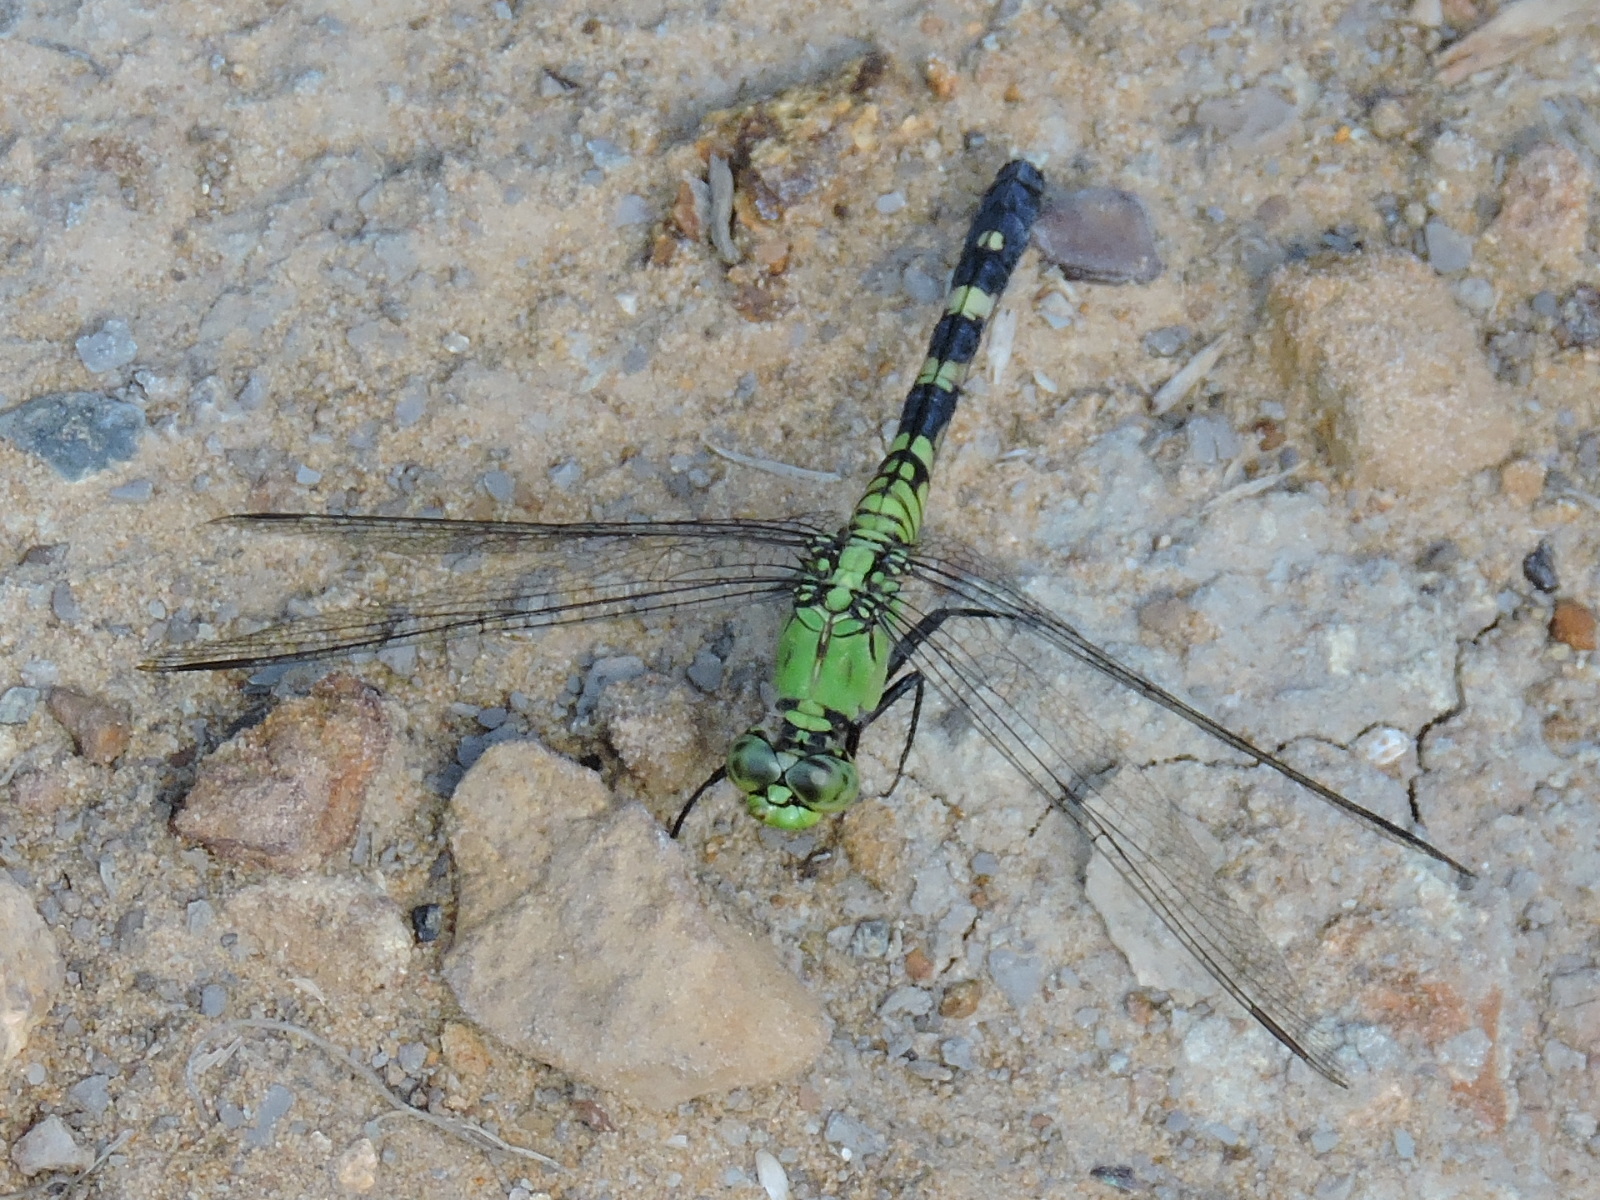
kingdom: Animalia
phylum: Arthropoda
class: Insecta
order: Odonata
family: Libellulidae
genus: Erythemis
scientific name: Erythemis simplicicollis
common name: Eastern pondhawk
